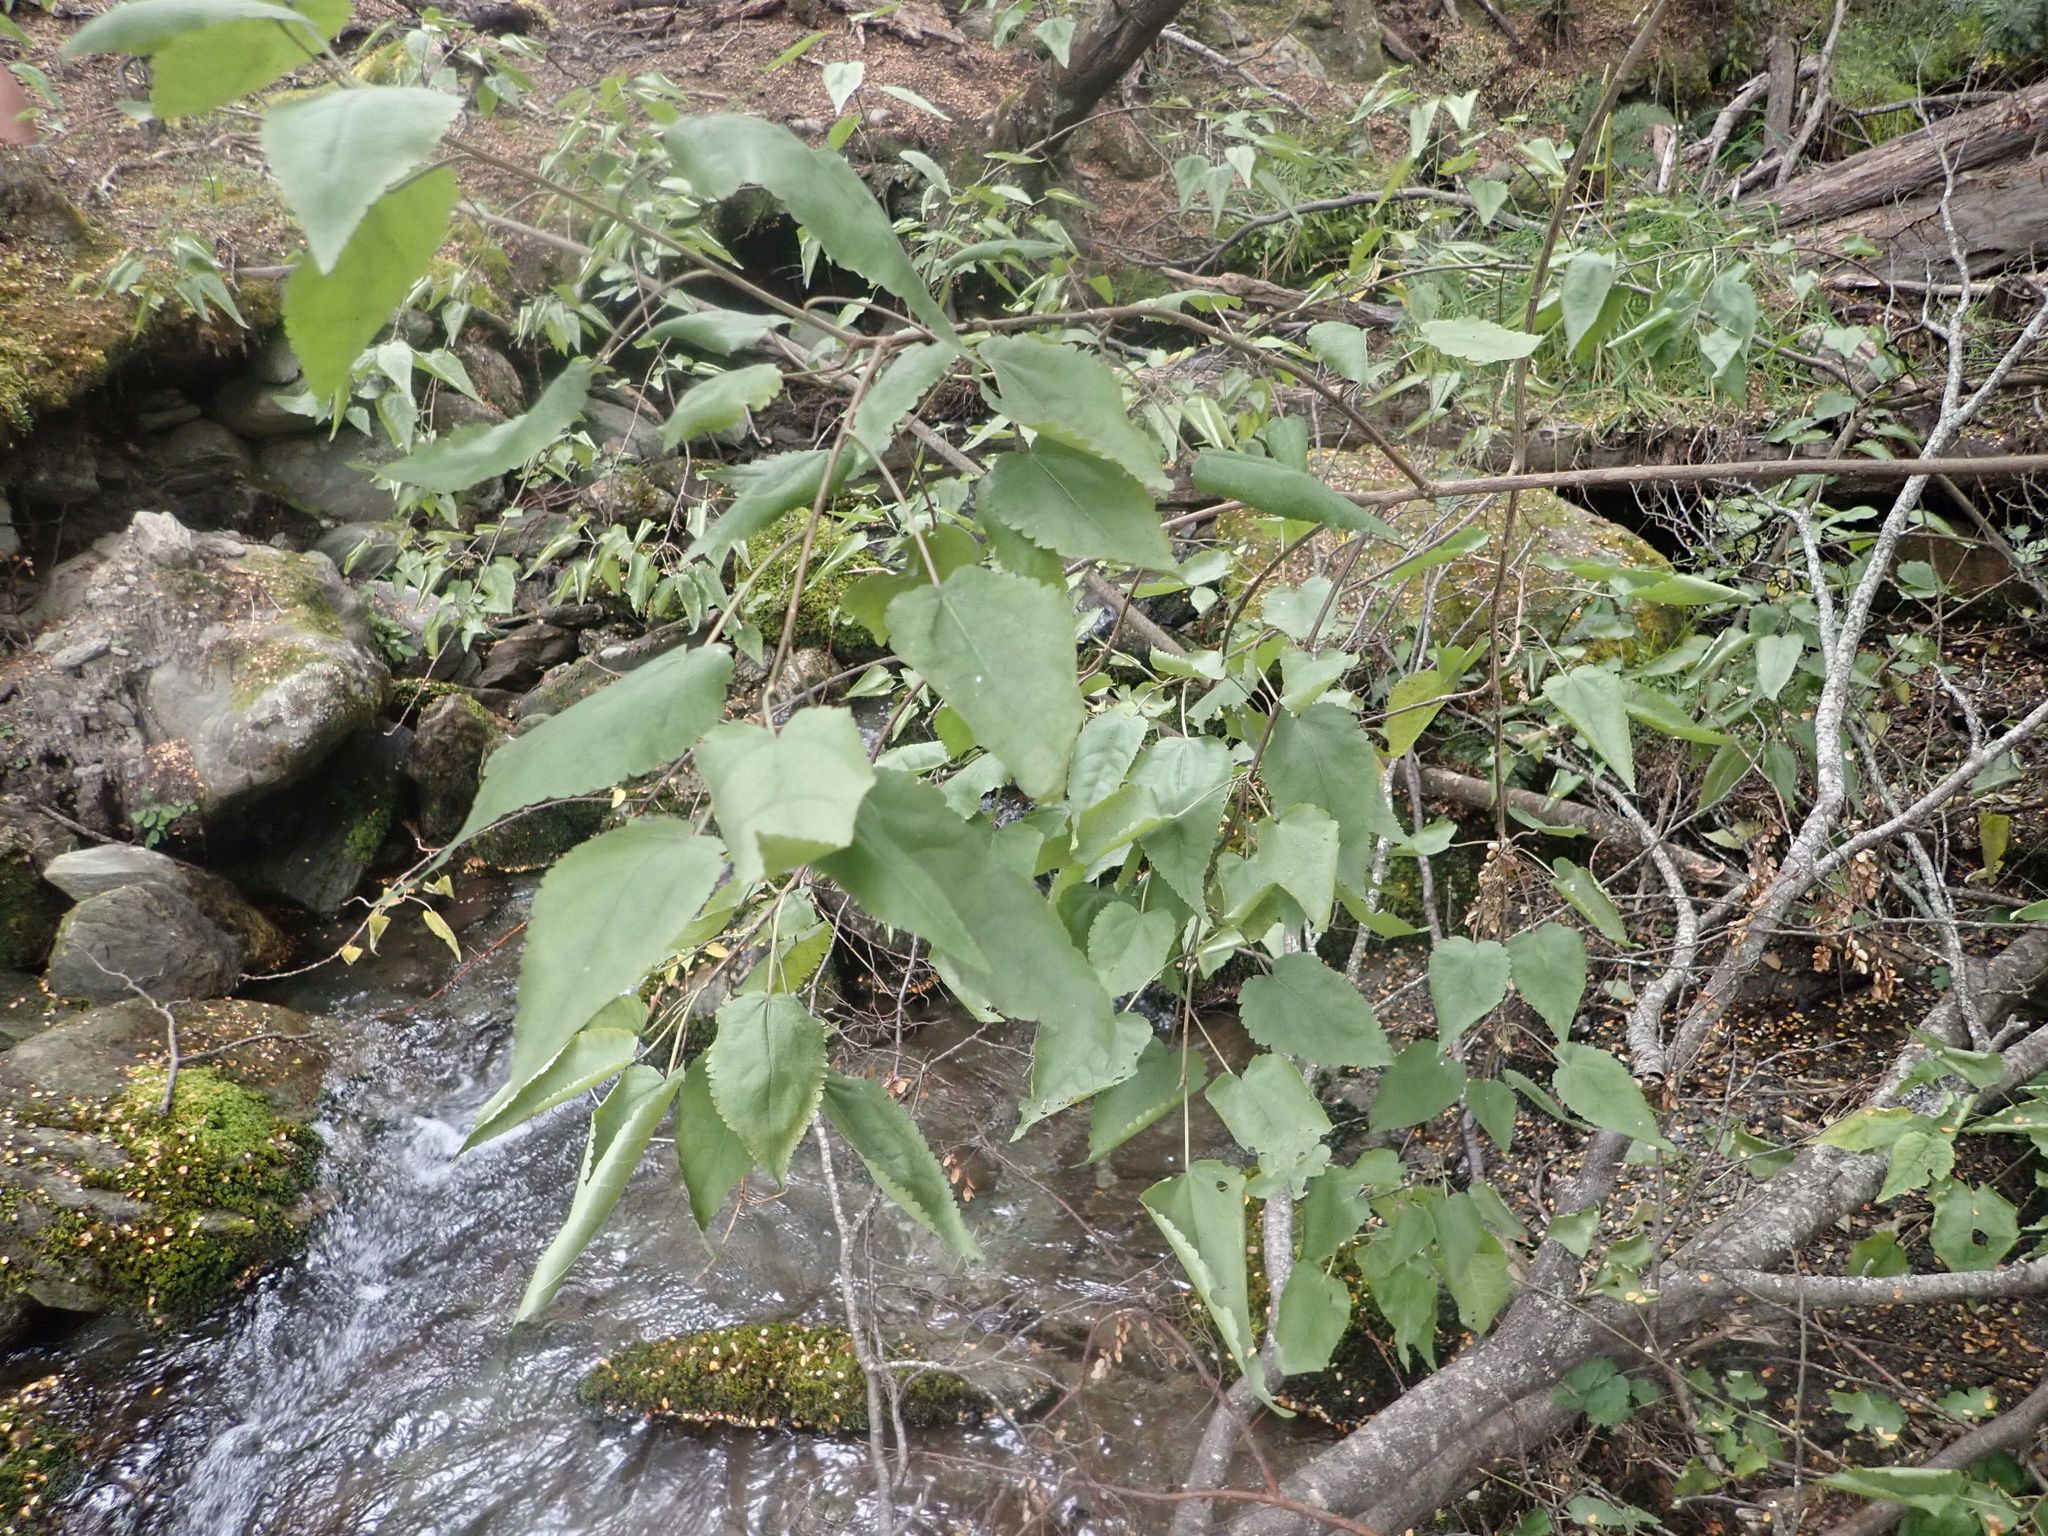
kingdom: Plantae
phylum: Tracheophyta
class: Magnoliopsida
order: Malvales
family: Malvaceae
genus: Hoheria
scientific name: Hoheria glabrata
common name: Mountain-ribbon
